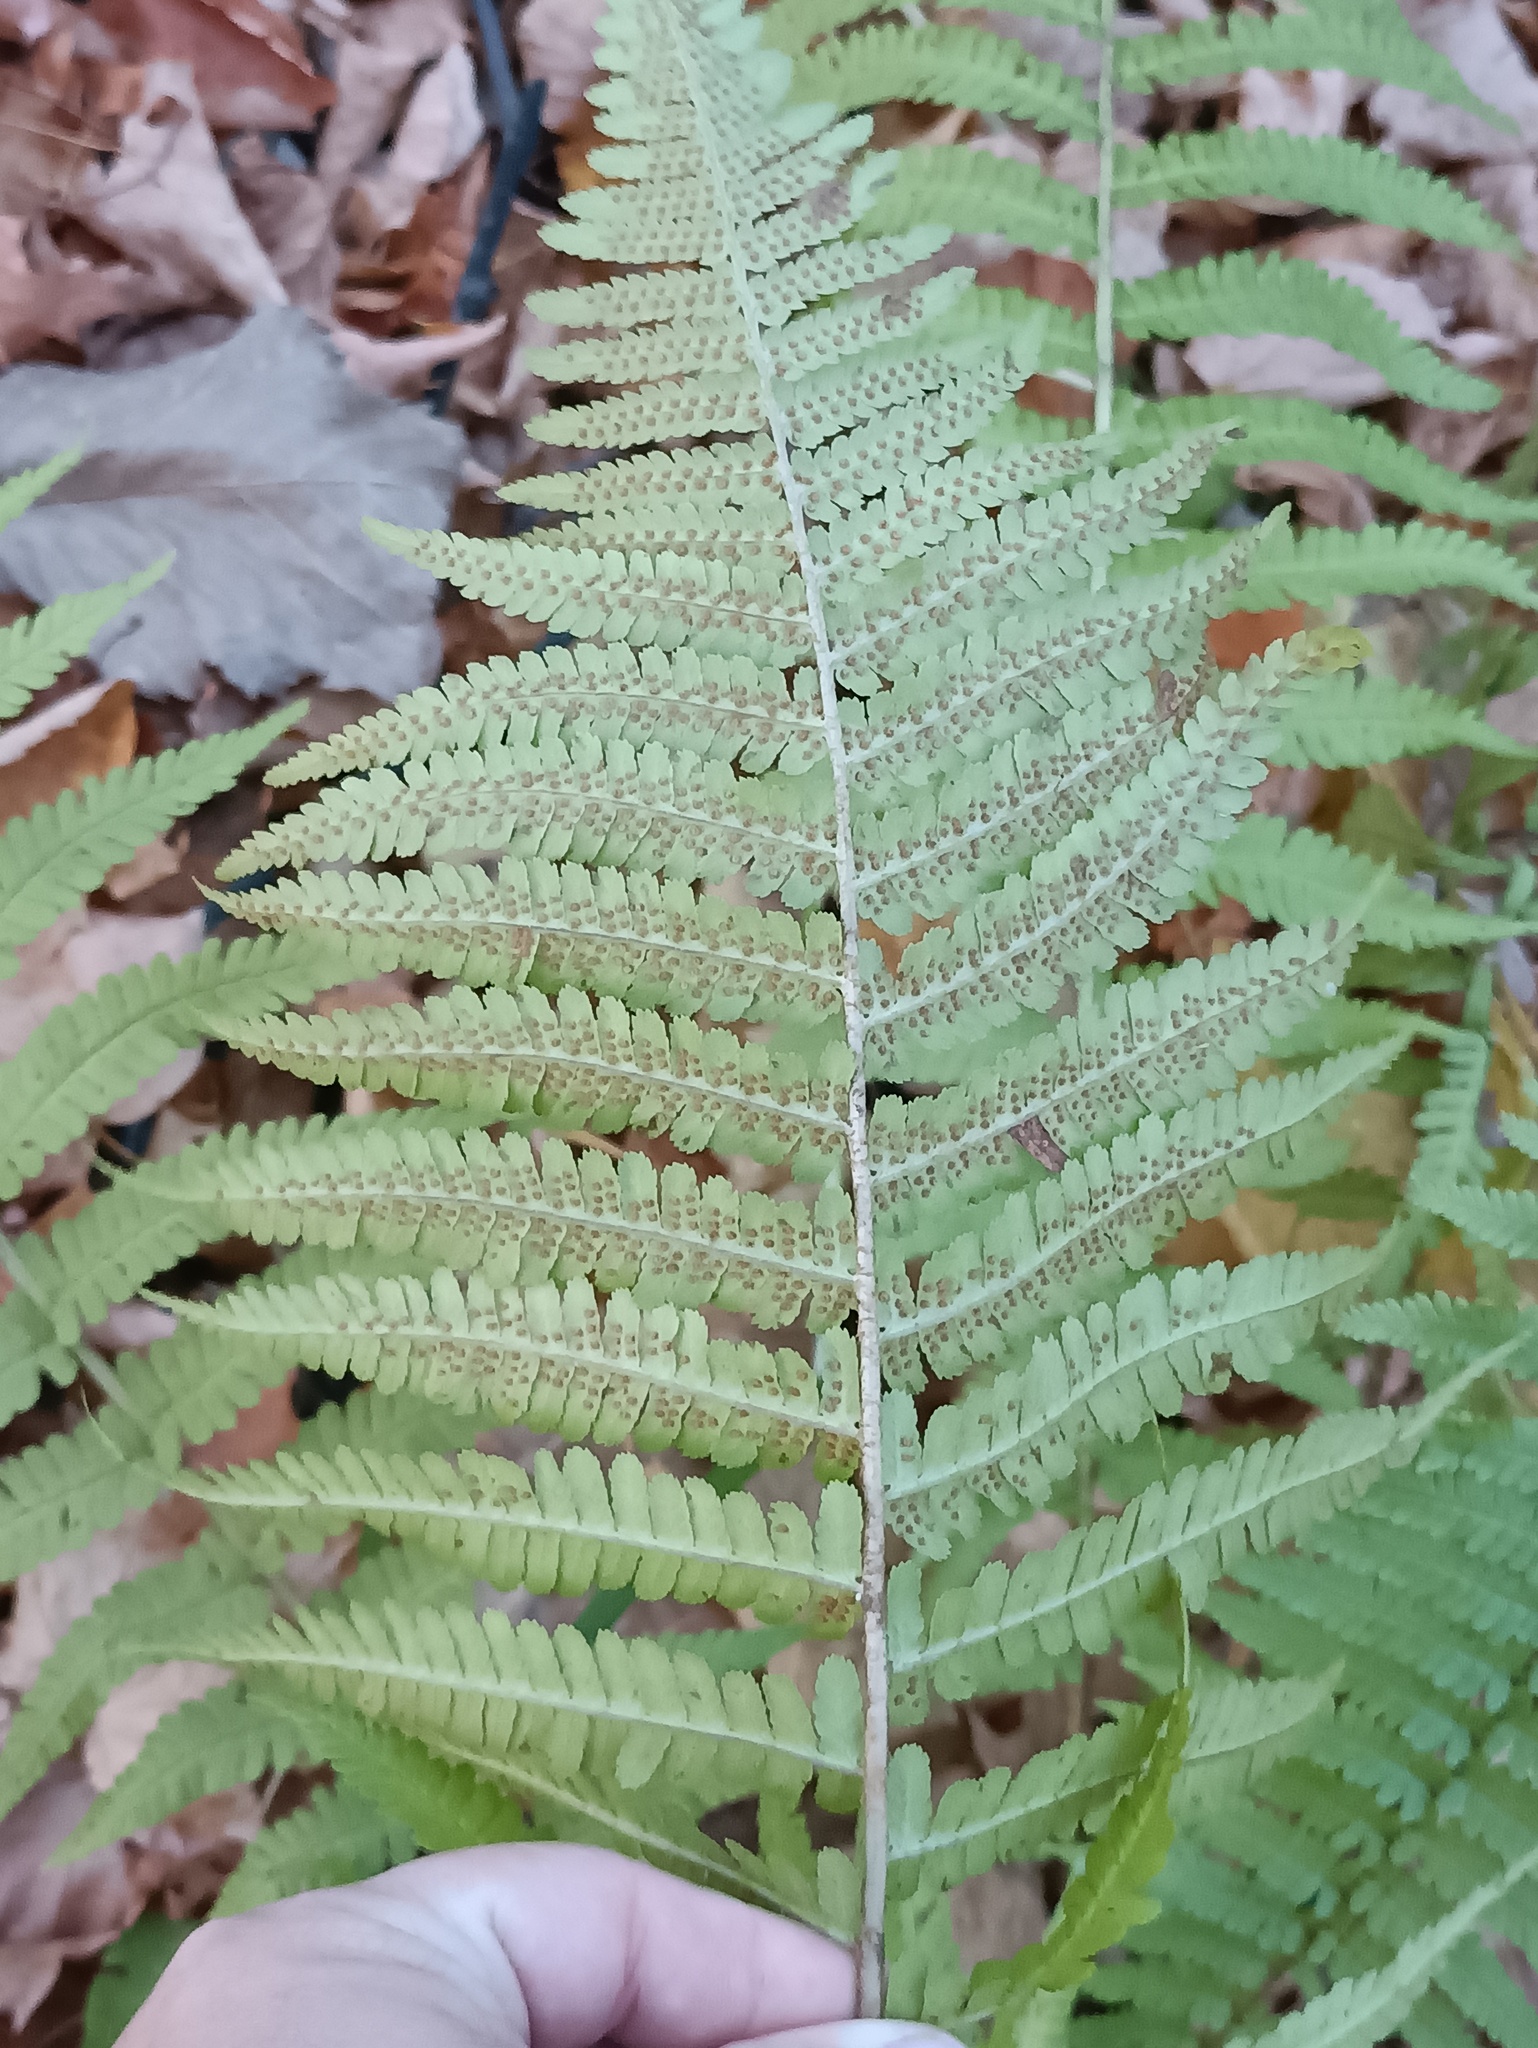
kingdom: Plantae
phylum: Tracheophyta
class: Polypodiopsida
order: Polypodiales
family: Dryopteridaceae
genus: Dryopteris
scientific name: Dryopteris filix-mas
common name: Male fern
